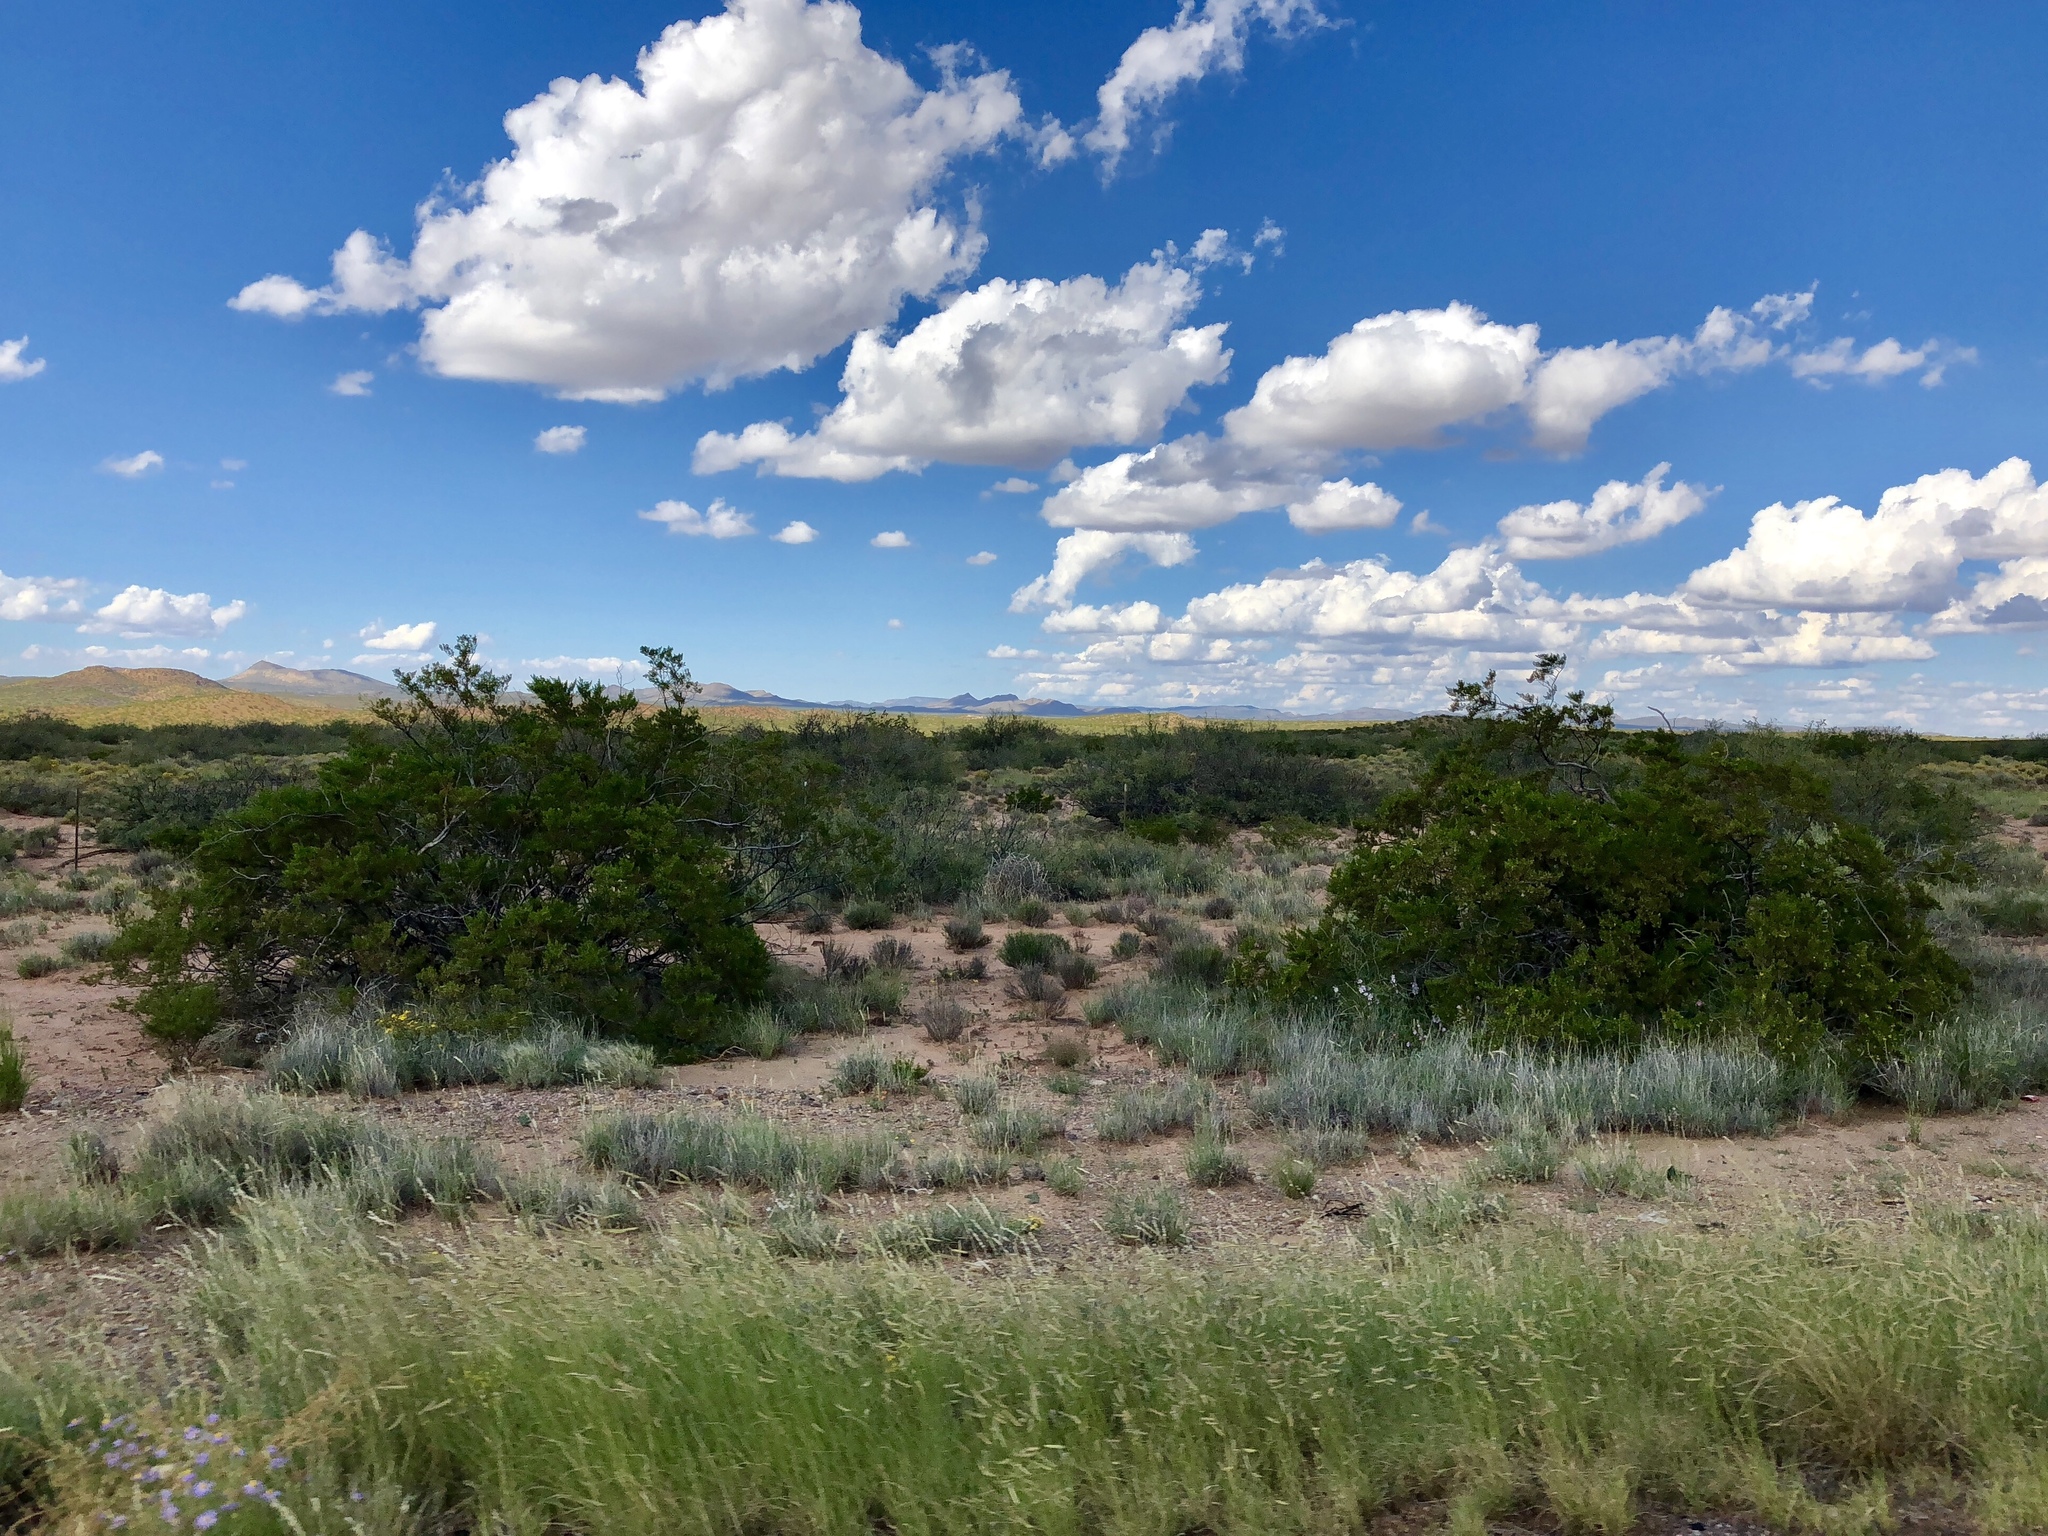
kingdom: Plantae
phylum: Tracheophyta
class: Magnoliopsida
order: Zygophyllales
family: Zygophyllaceae
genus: Larrea
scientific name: Larrea tridentata
